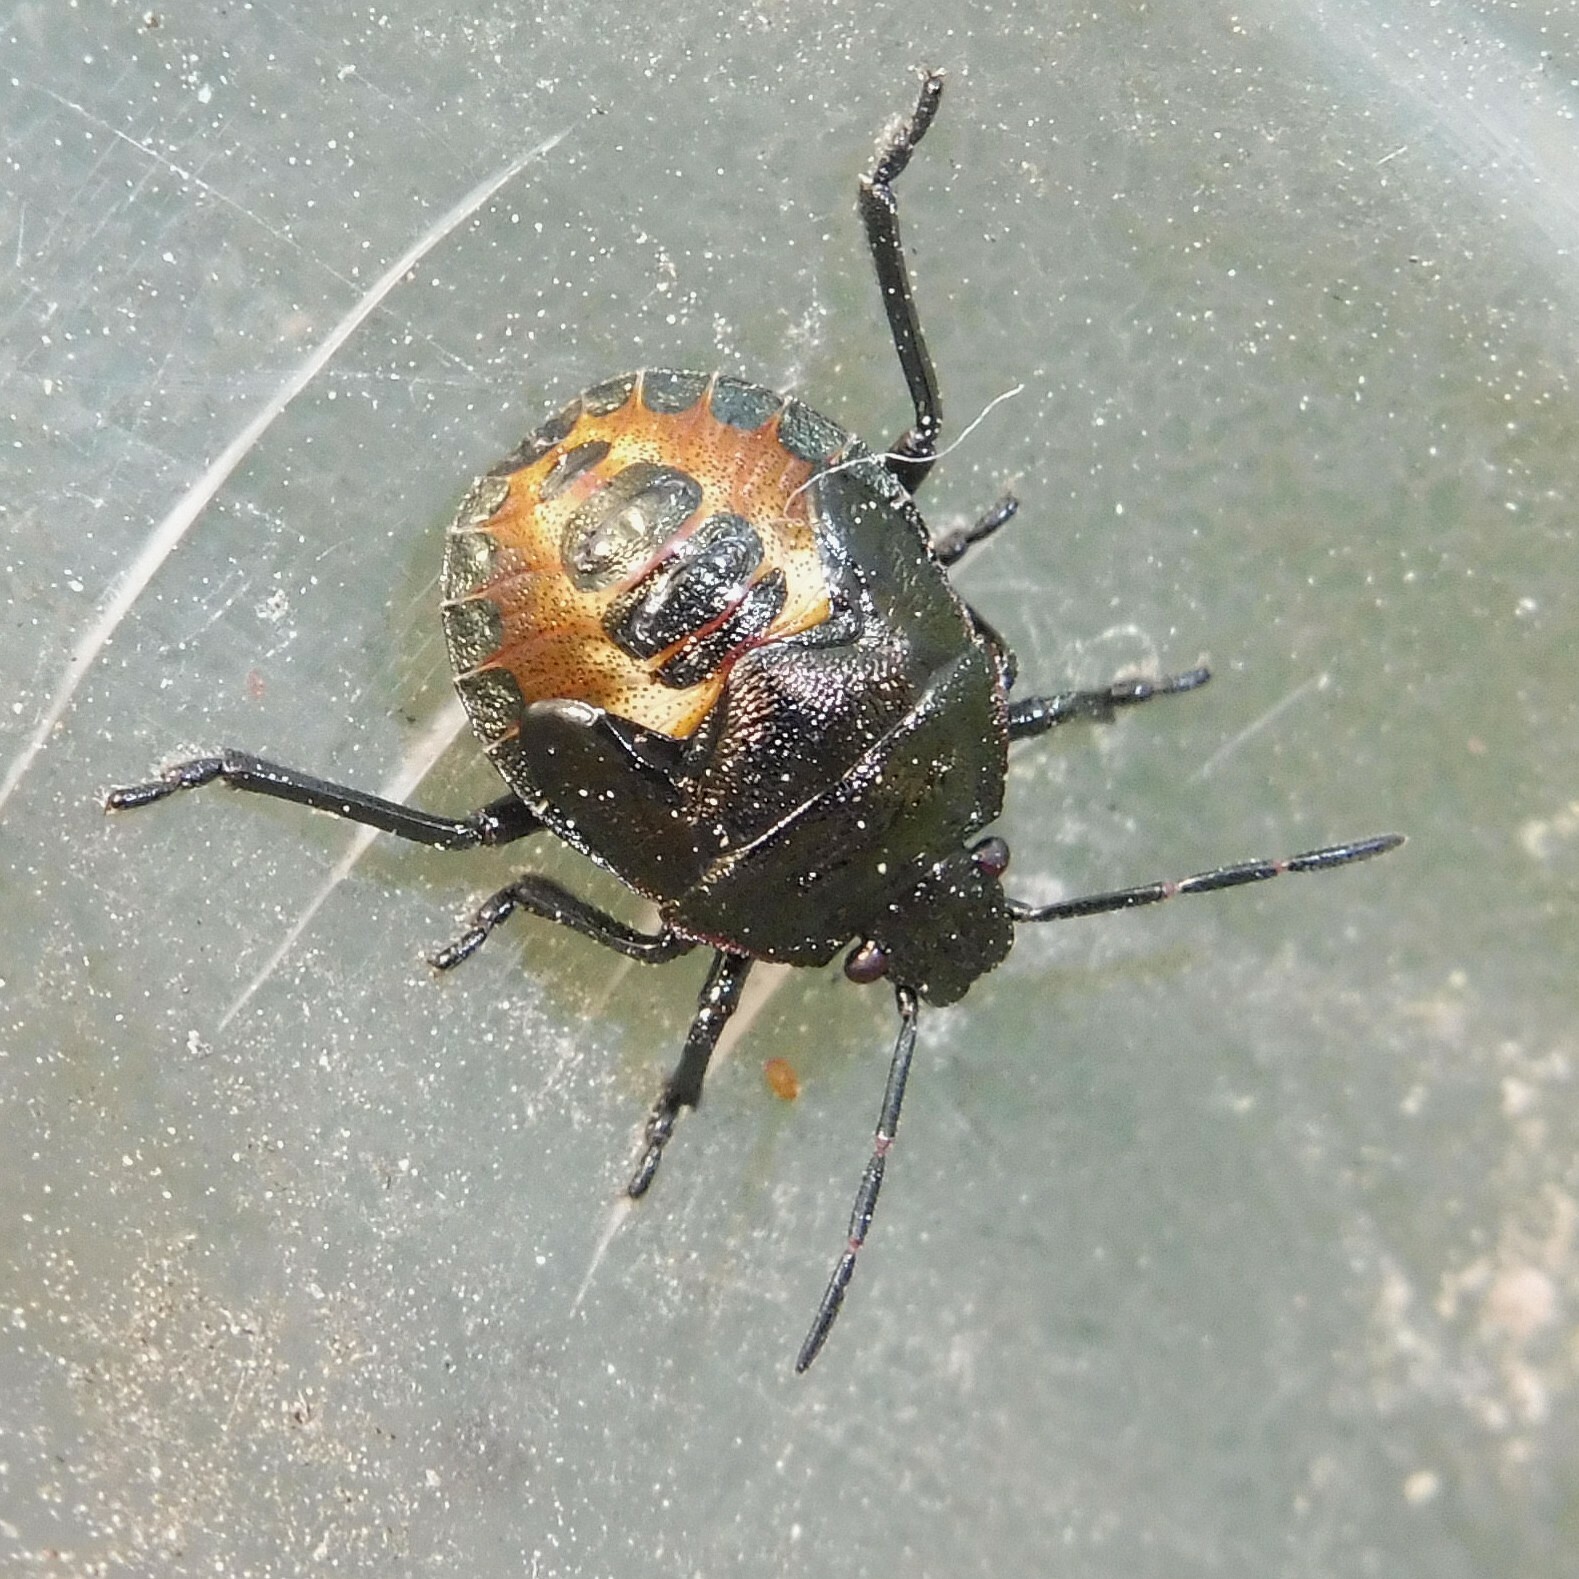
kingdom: Animalia
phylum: Arthropoda
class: Insecta
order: Hemiptera
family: Pentatomidae
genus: Rhacognathus
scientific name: Rhacognathus punctatus
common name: Heather bug
